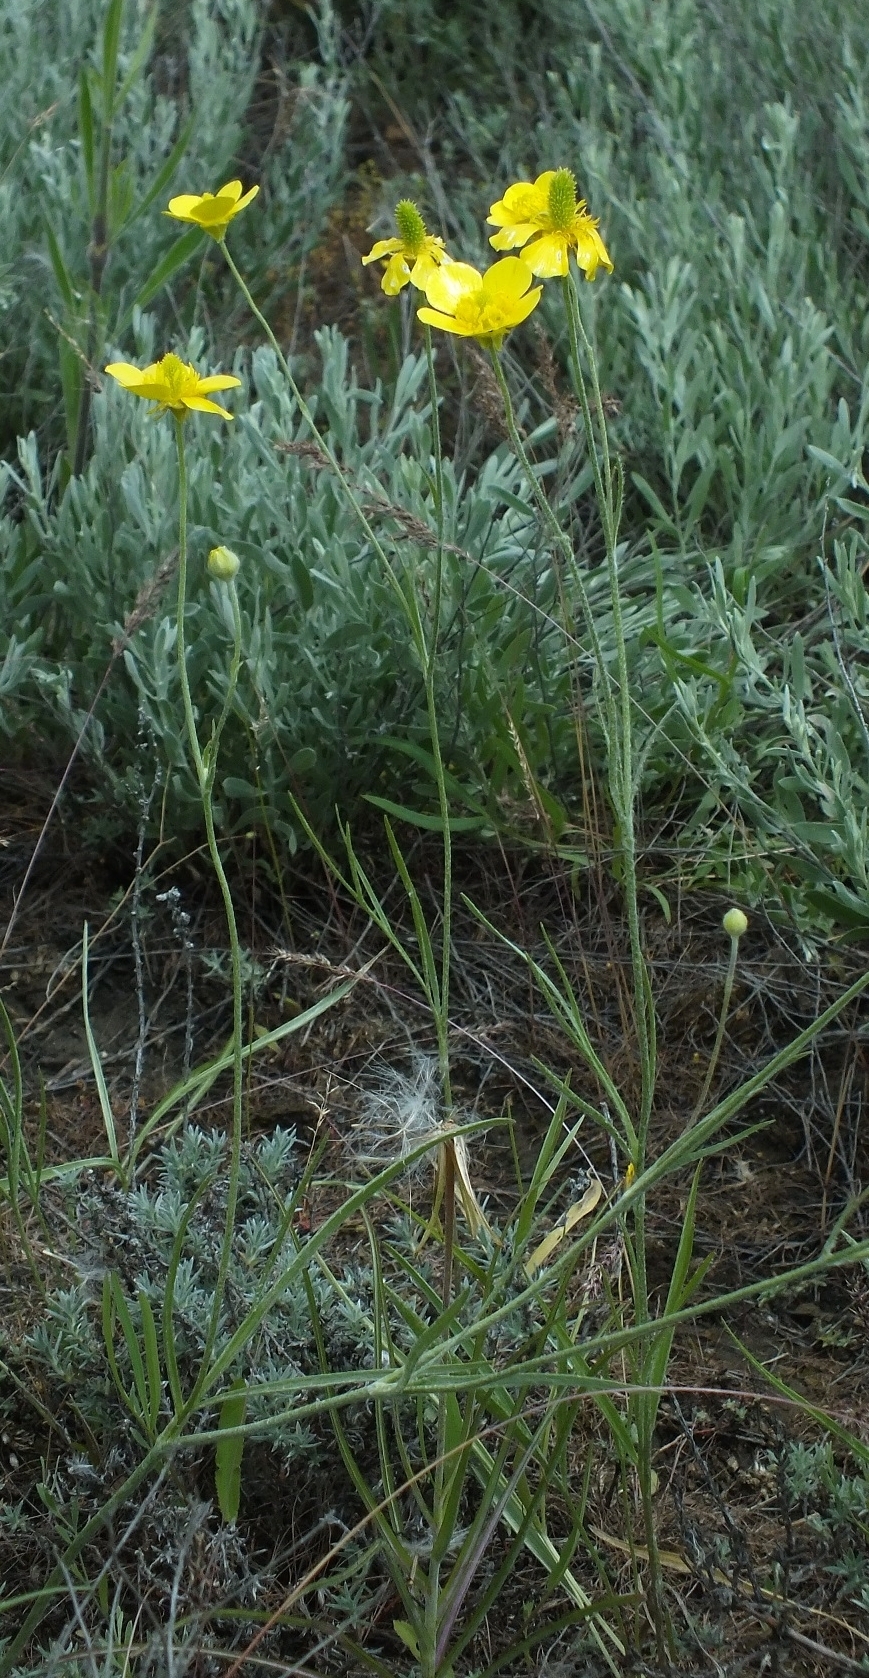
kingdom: Plantae
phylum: Tracheophyta
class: Magnoliopsida
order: Ranunculales
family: Ranunculaceae
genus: Ranunculus
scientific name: Ranunculus illyricus
